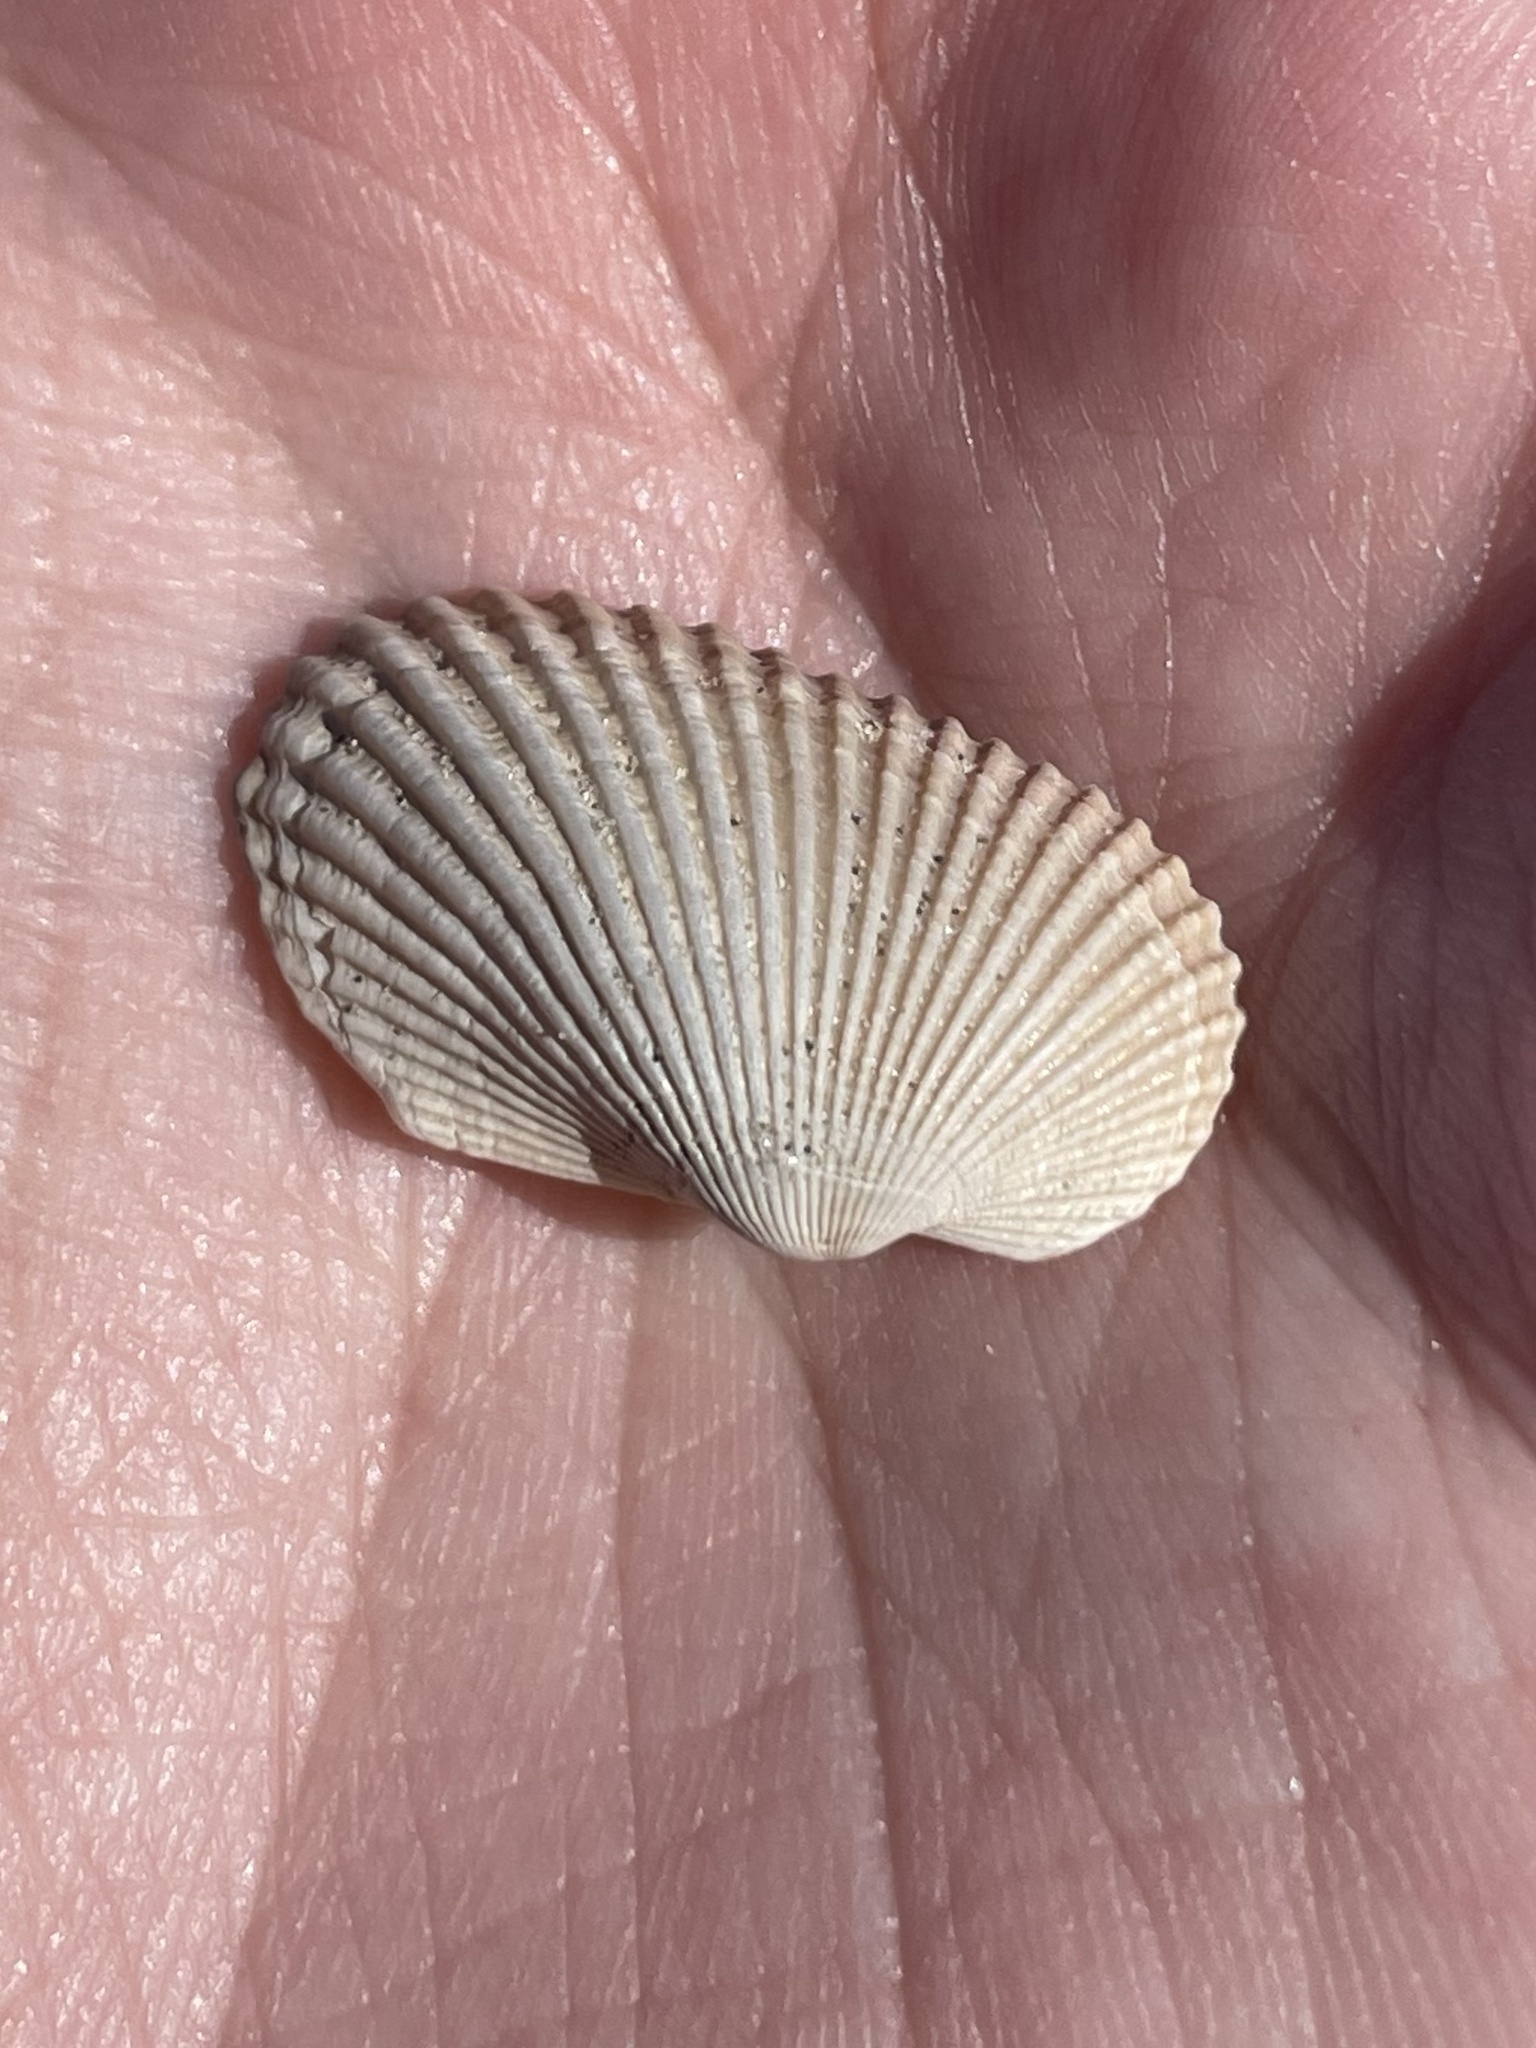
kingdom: Animalia
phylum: Mollusca
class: Bivalvia
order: Arcida
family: Arcidae
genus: Anadara
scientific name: Anadara transversa
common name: Transverse ark
